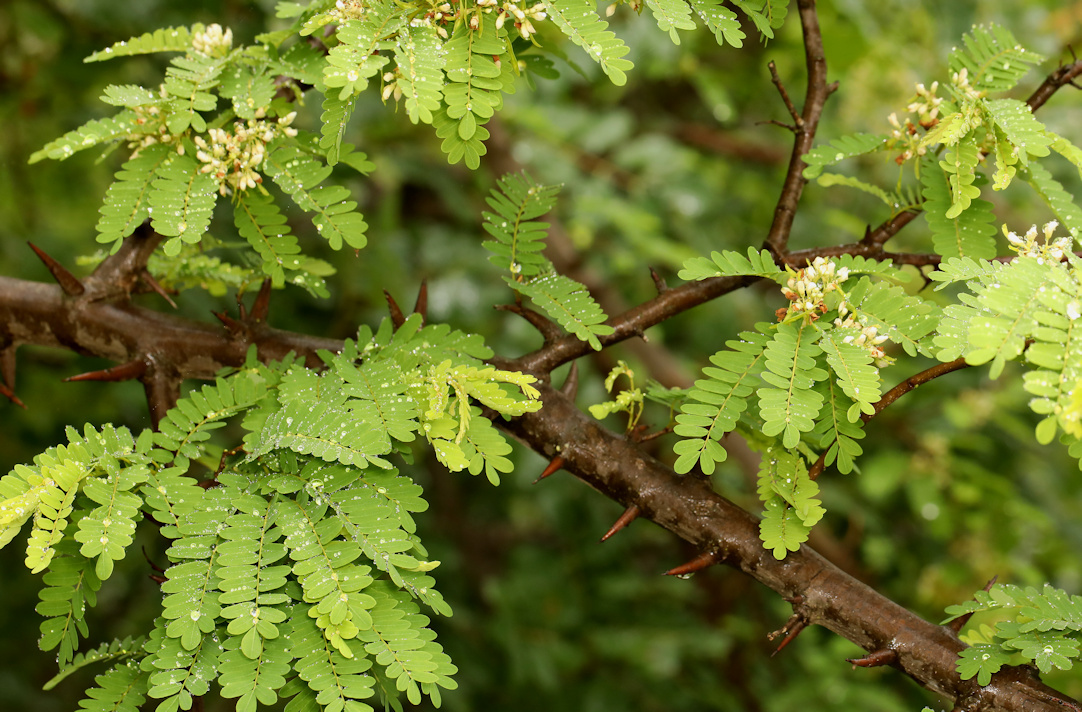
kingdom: Plantae
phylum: Tracheophyta
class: Magnoliopsida
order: Fabales
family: Fabaceae
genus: Dalbergia
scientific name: Dalbergia armata
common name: Hluhluwe climber
